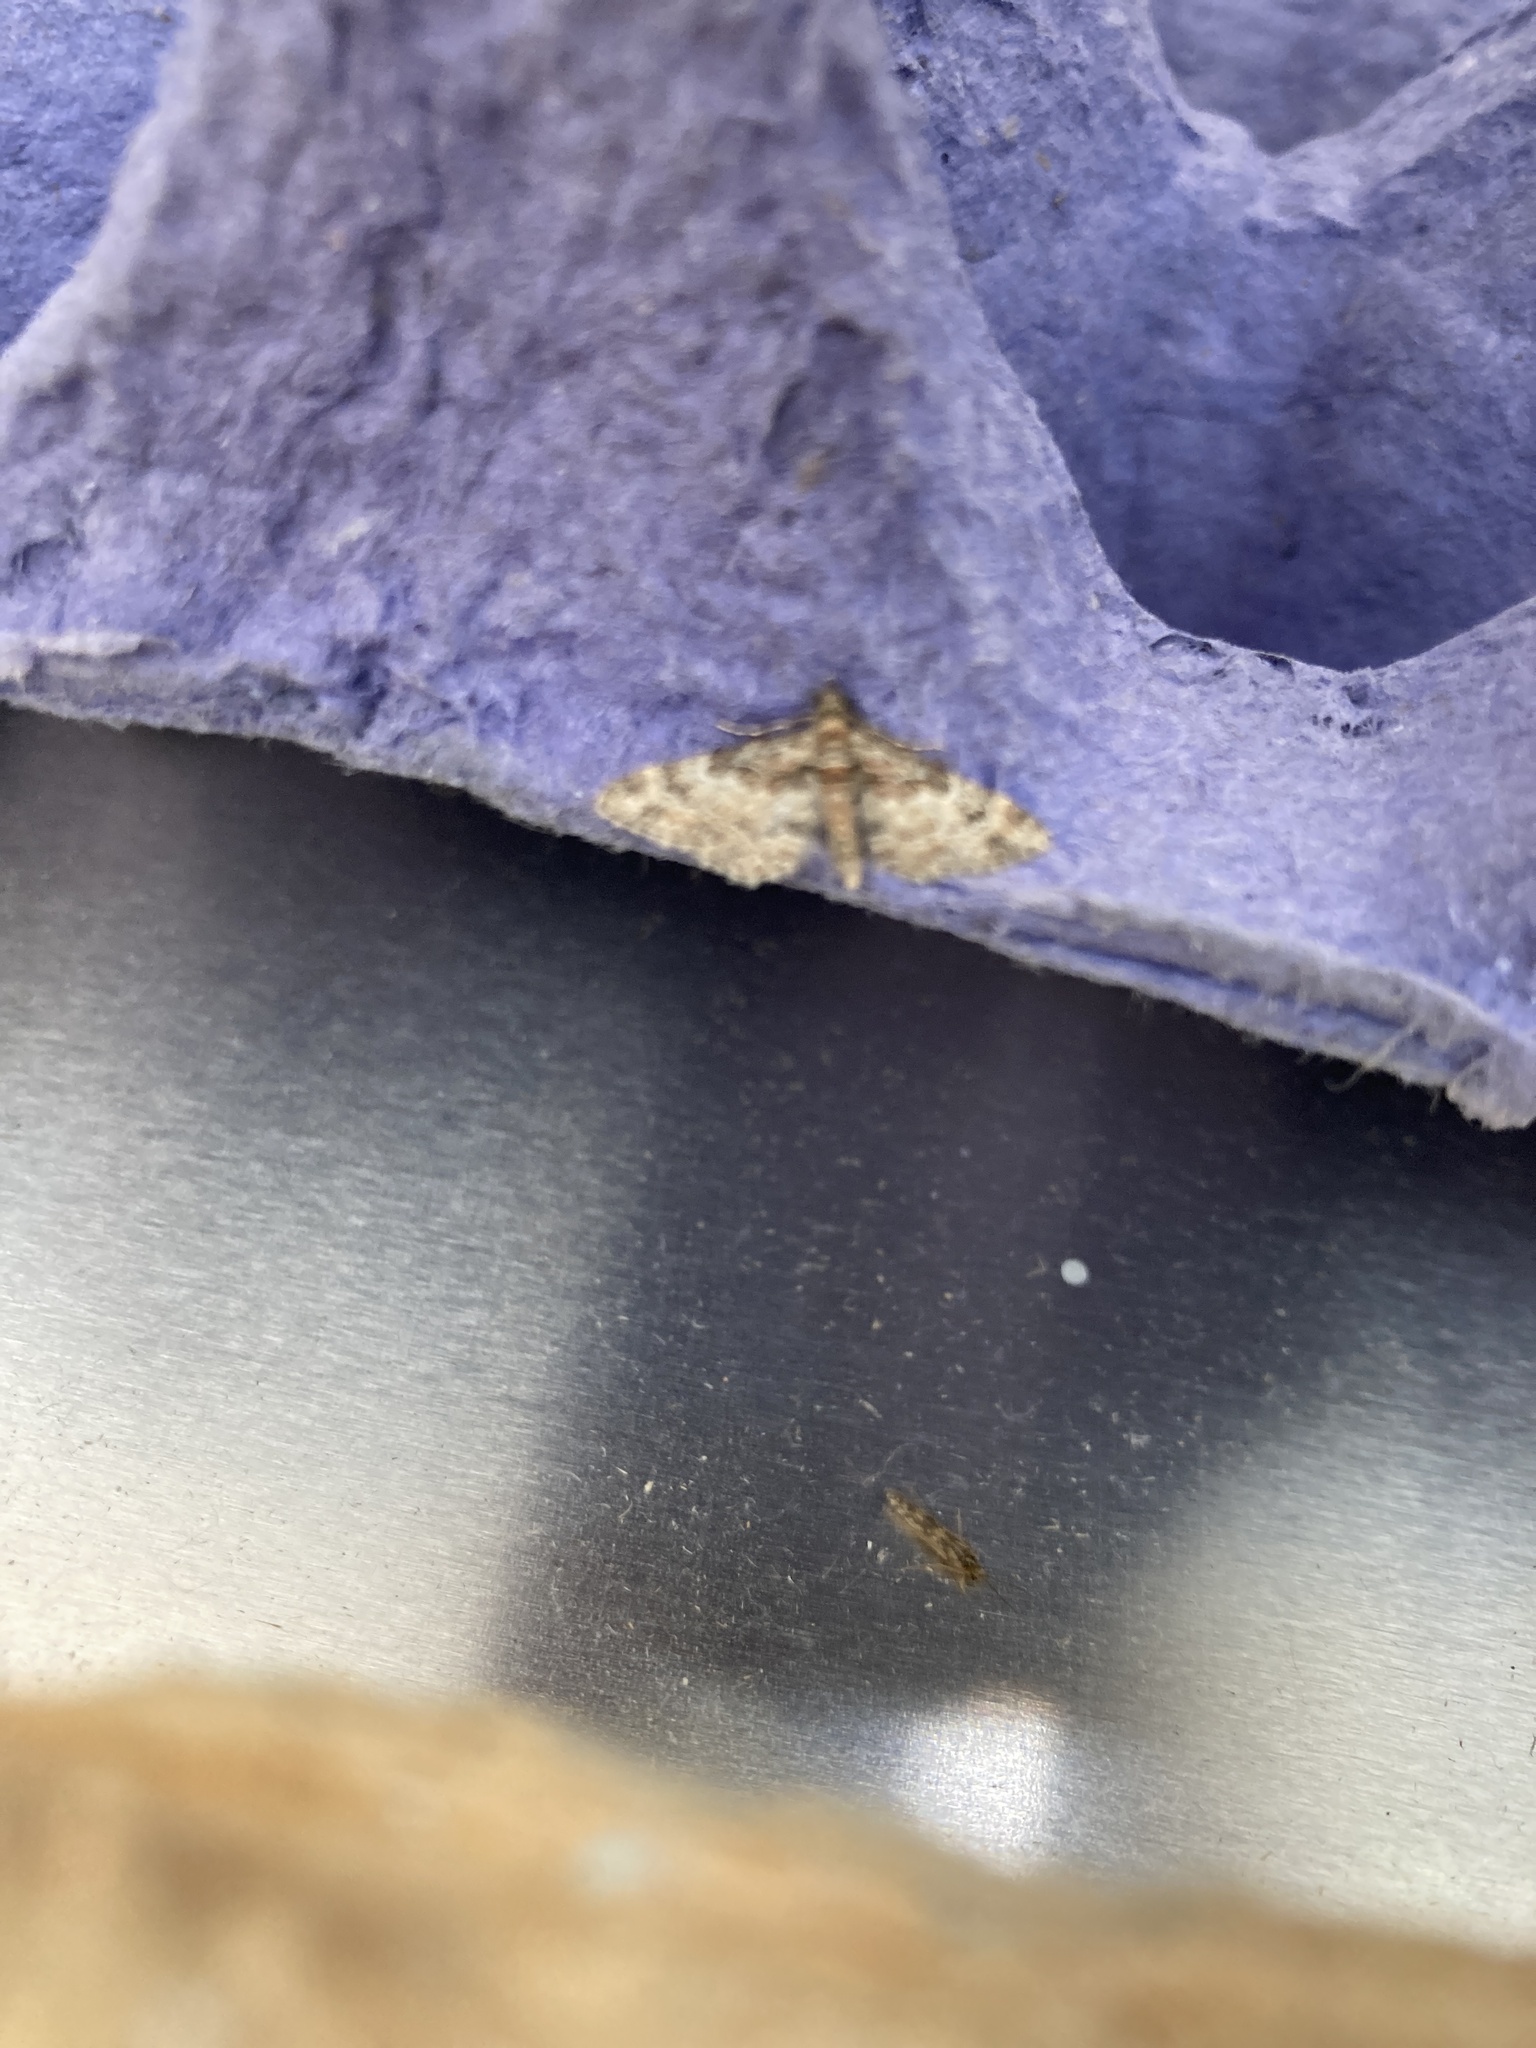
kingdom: Animalia
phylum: Arthropoda
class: Insecta
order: Lepidoptera
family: Geometridae
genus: Gymnoscelis
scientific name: Gymnoscelis rufifasciata
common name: Double-striped pug
